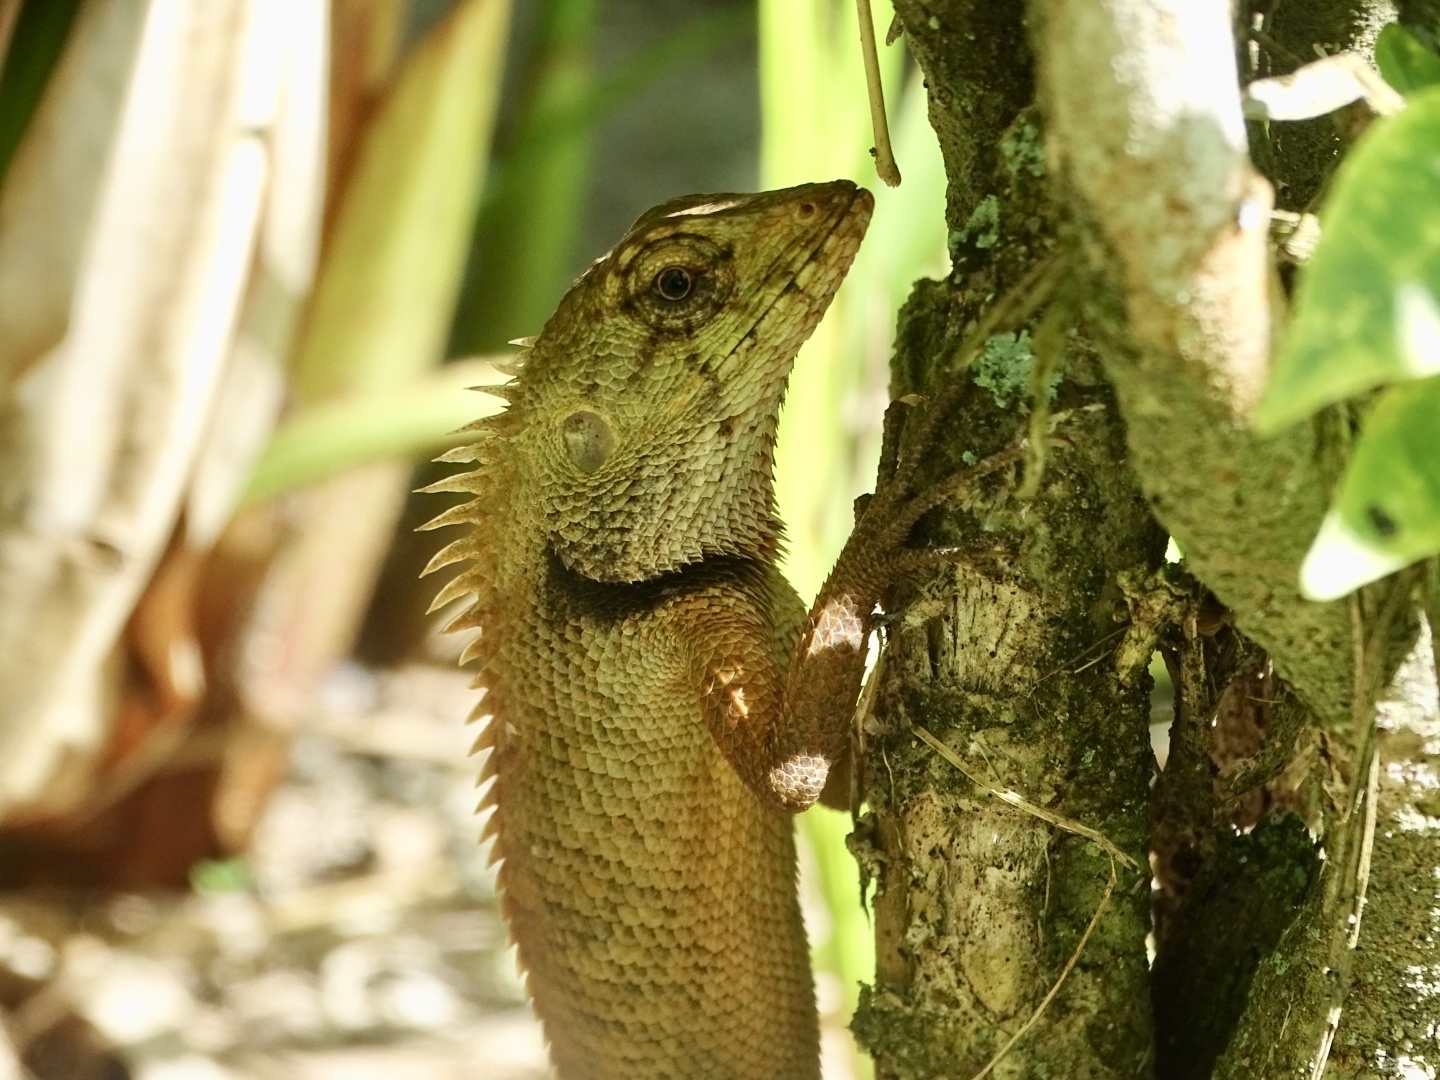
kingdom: Animalia
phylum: Chordata
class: Squamata
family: Agamidae
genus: Calotes
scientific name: Calotes versicolor
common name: Oriental garden lizard
